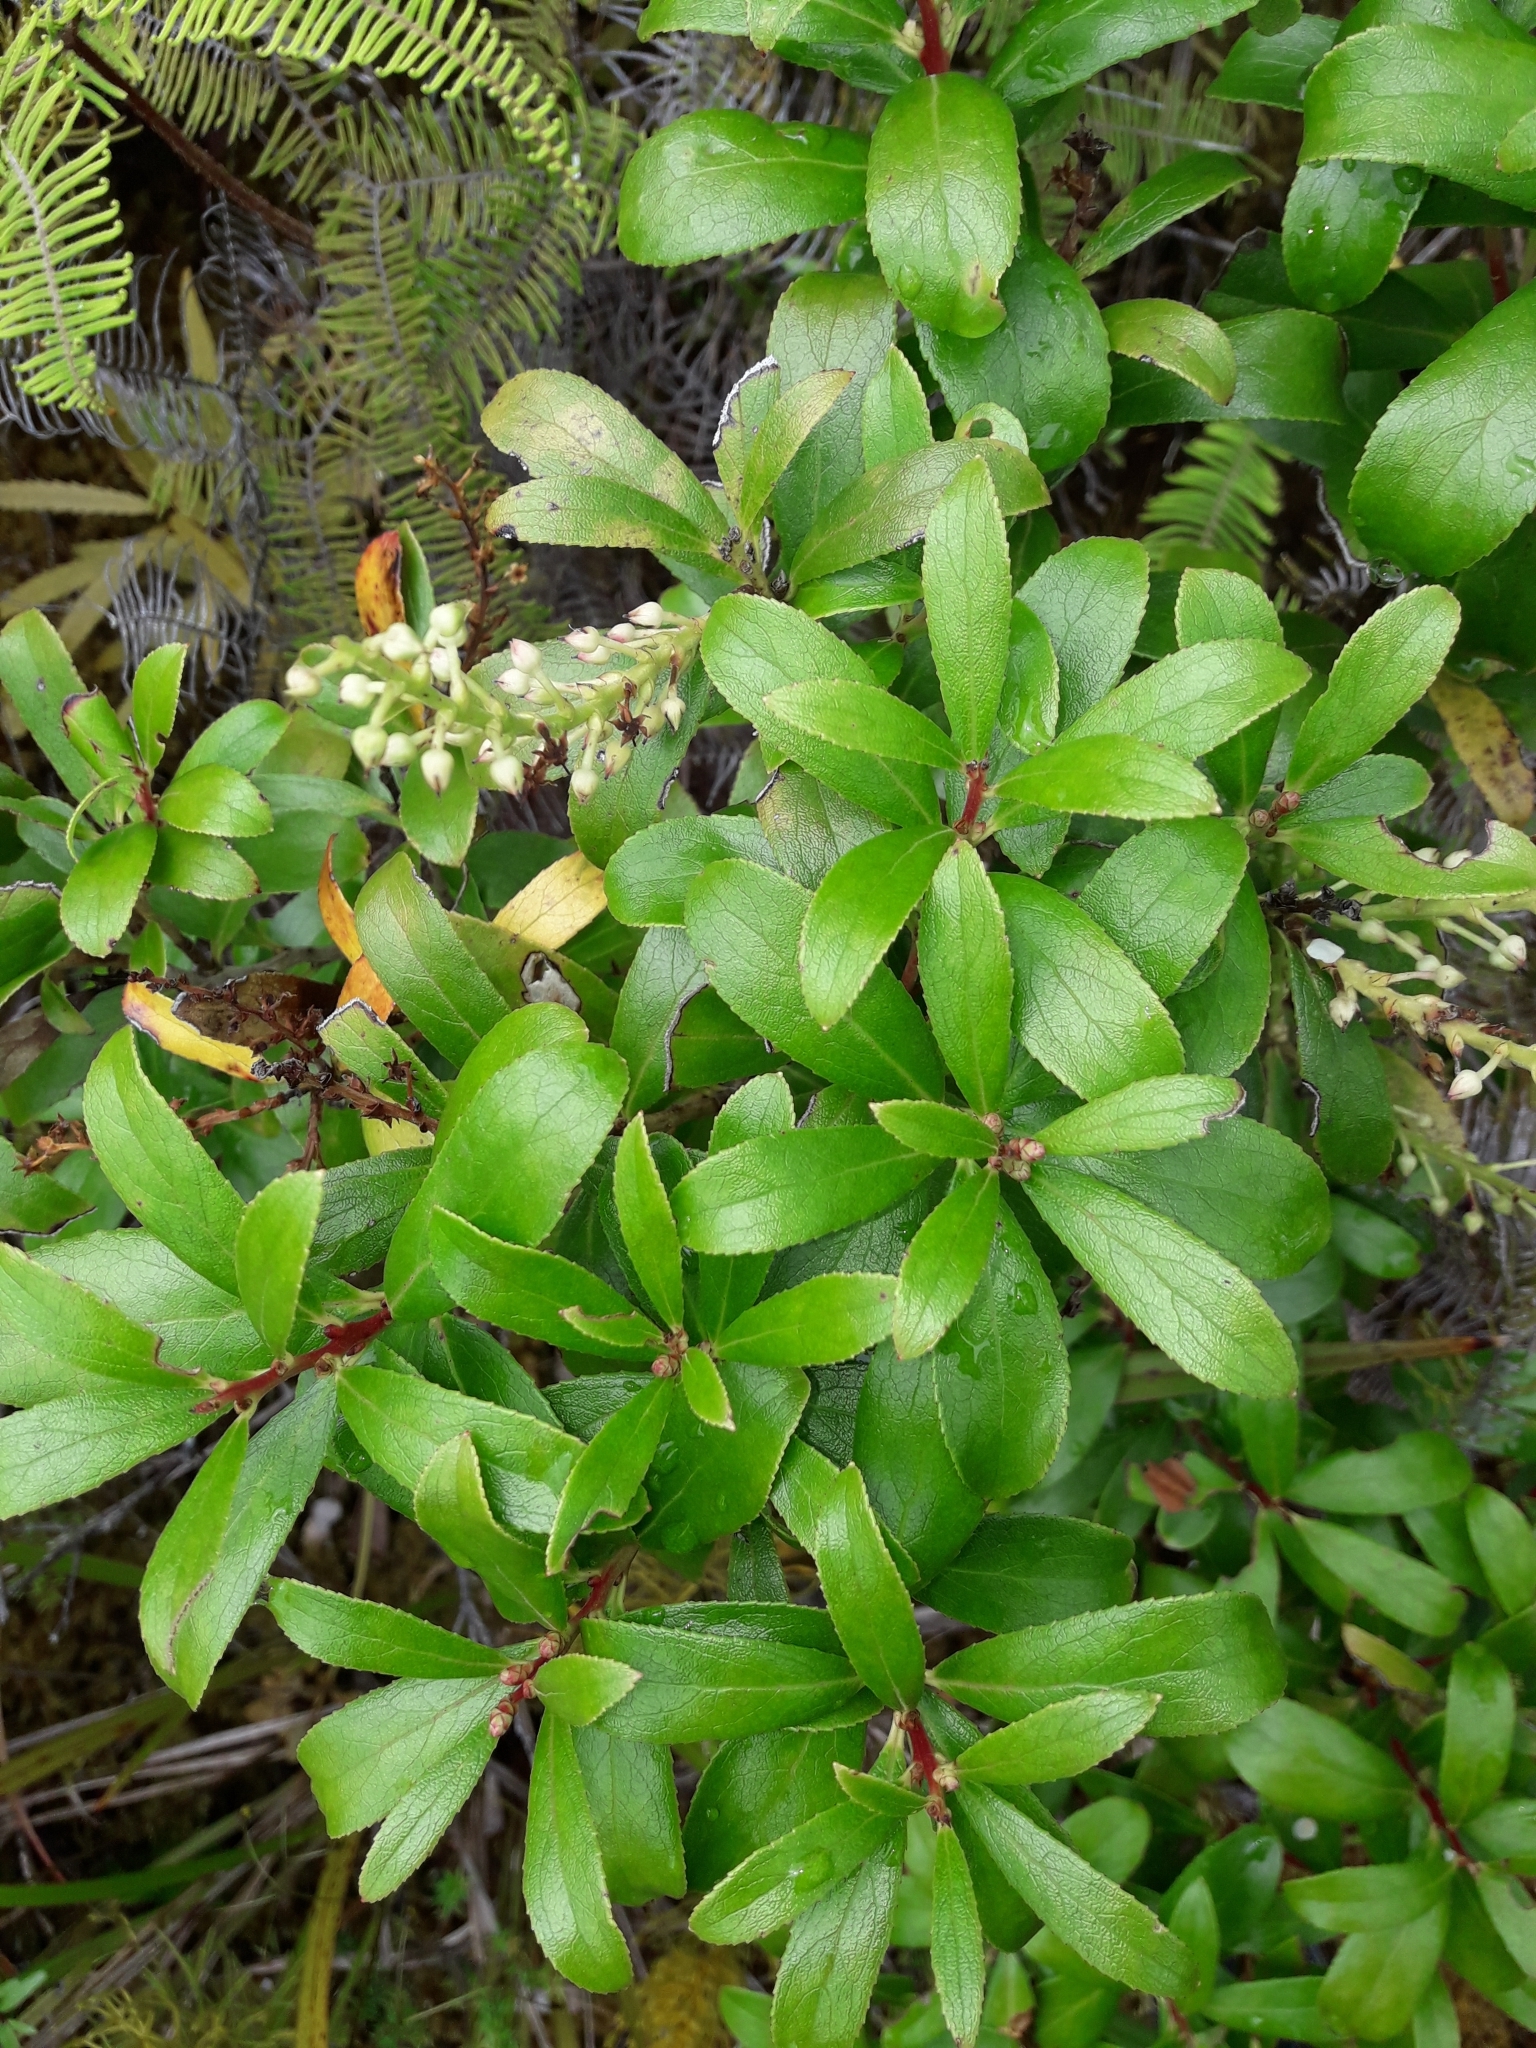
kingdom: Plantae
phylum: Tracheophyta
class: Magnoliopsida
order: Ericales
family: Ericaceae
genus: Gaultheria
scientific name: Gaultheria paniculata
